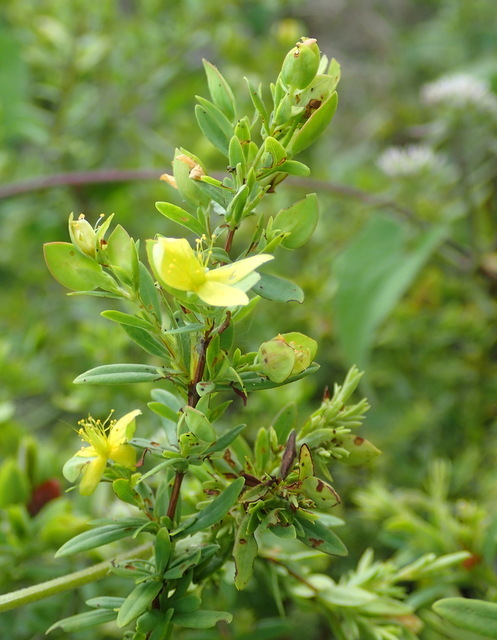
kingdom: Plantae
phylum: Tracheophyta
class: Magnoliopsida
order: Malpighiales
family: Hypericaceae
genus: Hypericum
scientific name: Hypericum hypericoides
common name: St. andrew's cross
